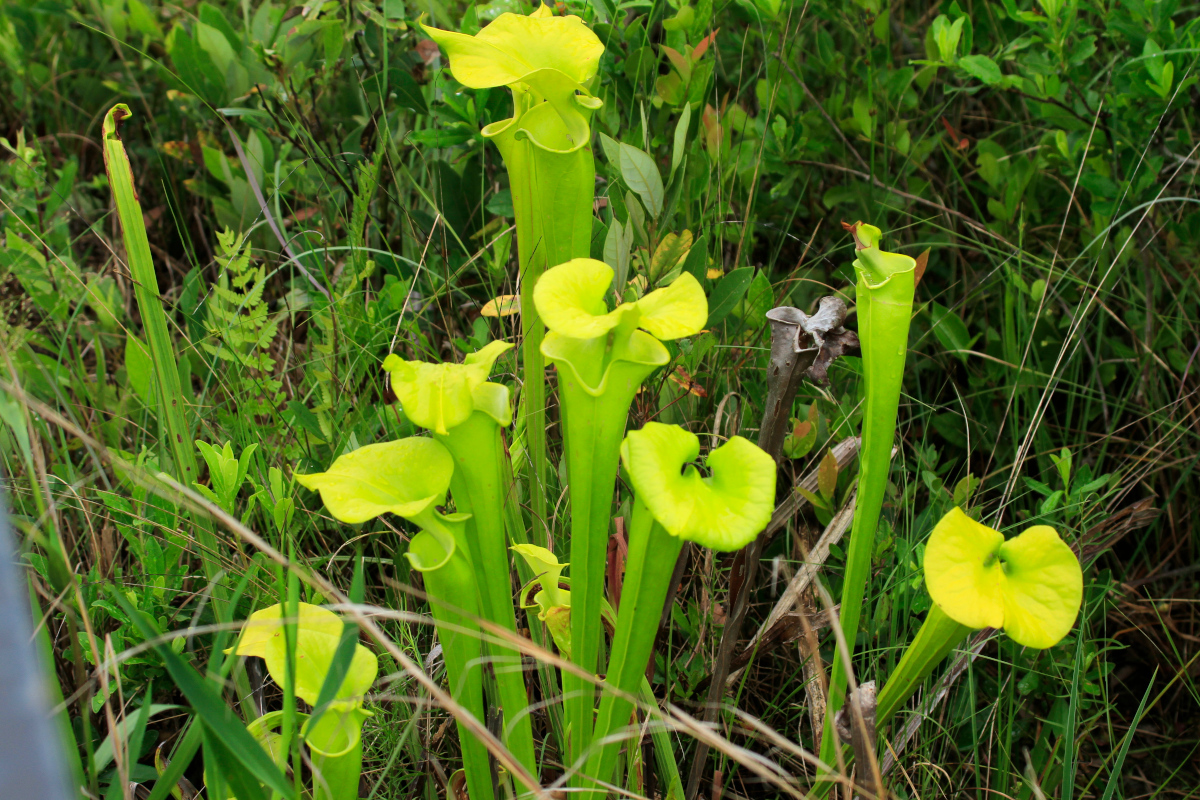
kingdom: Plantae
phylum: Tracheophyta
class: Magnoliopsida
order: Ericales
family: Sarraceniaceae
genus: Sarracenia
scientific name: Sarracenia flava
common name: Trumpets
